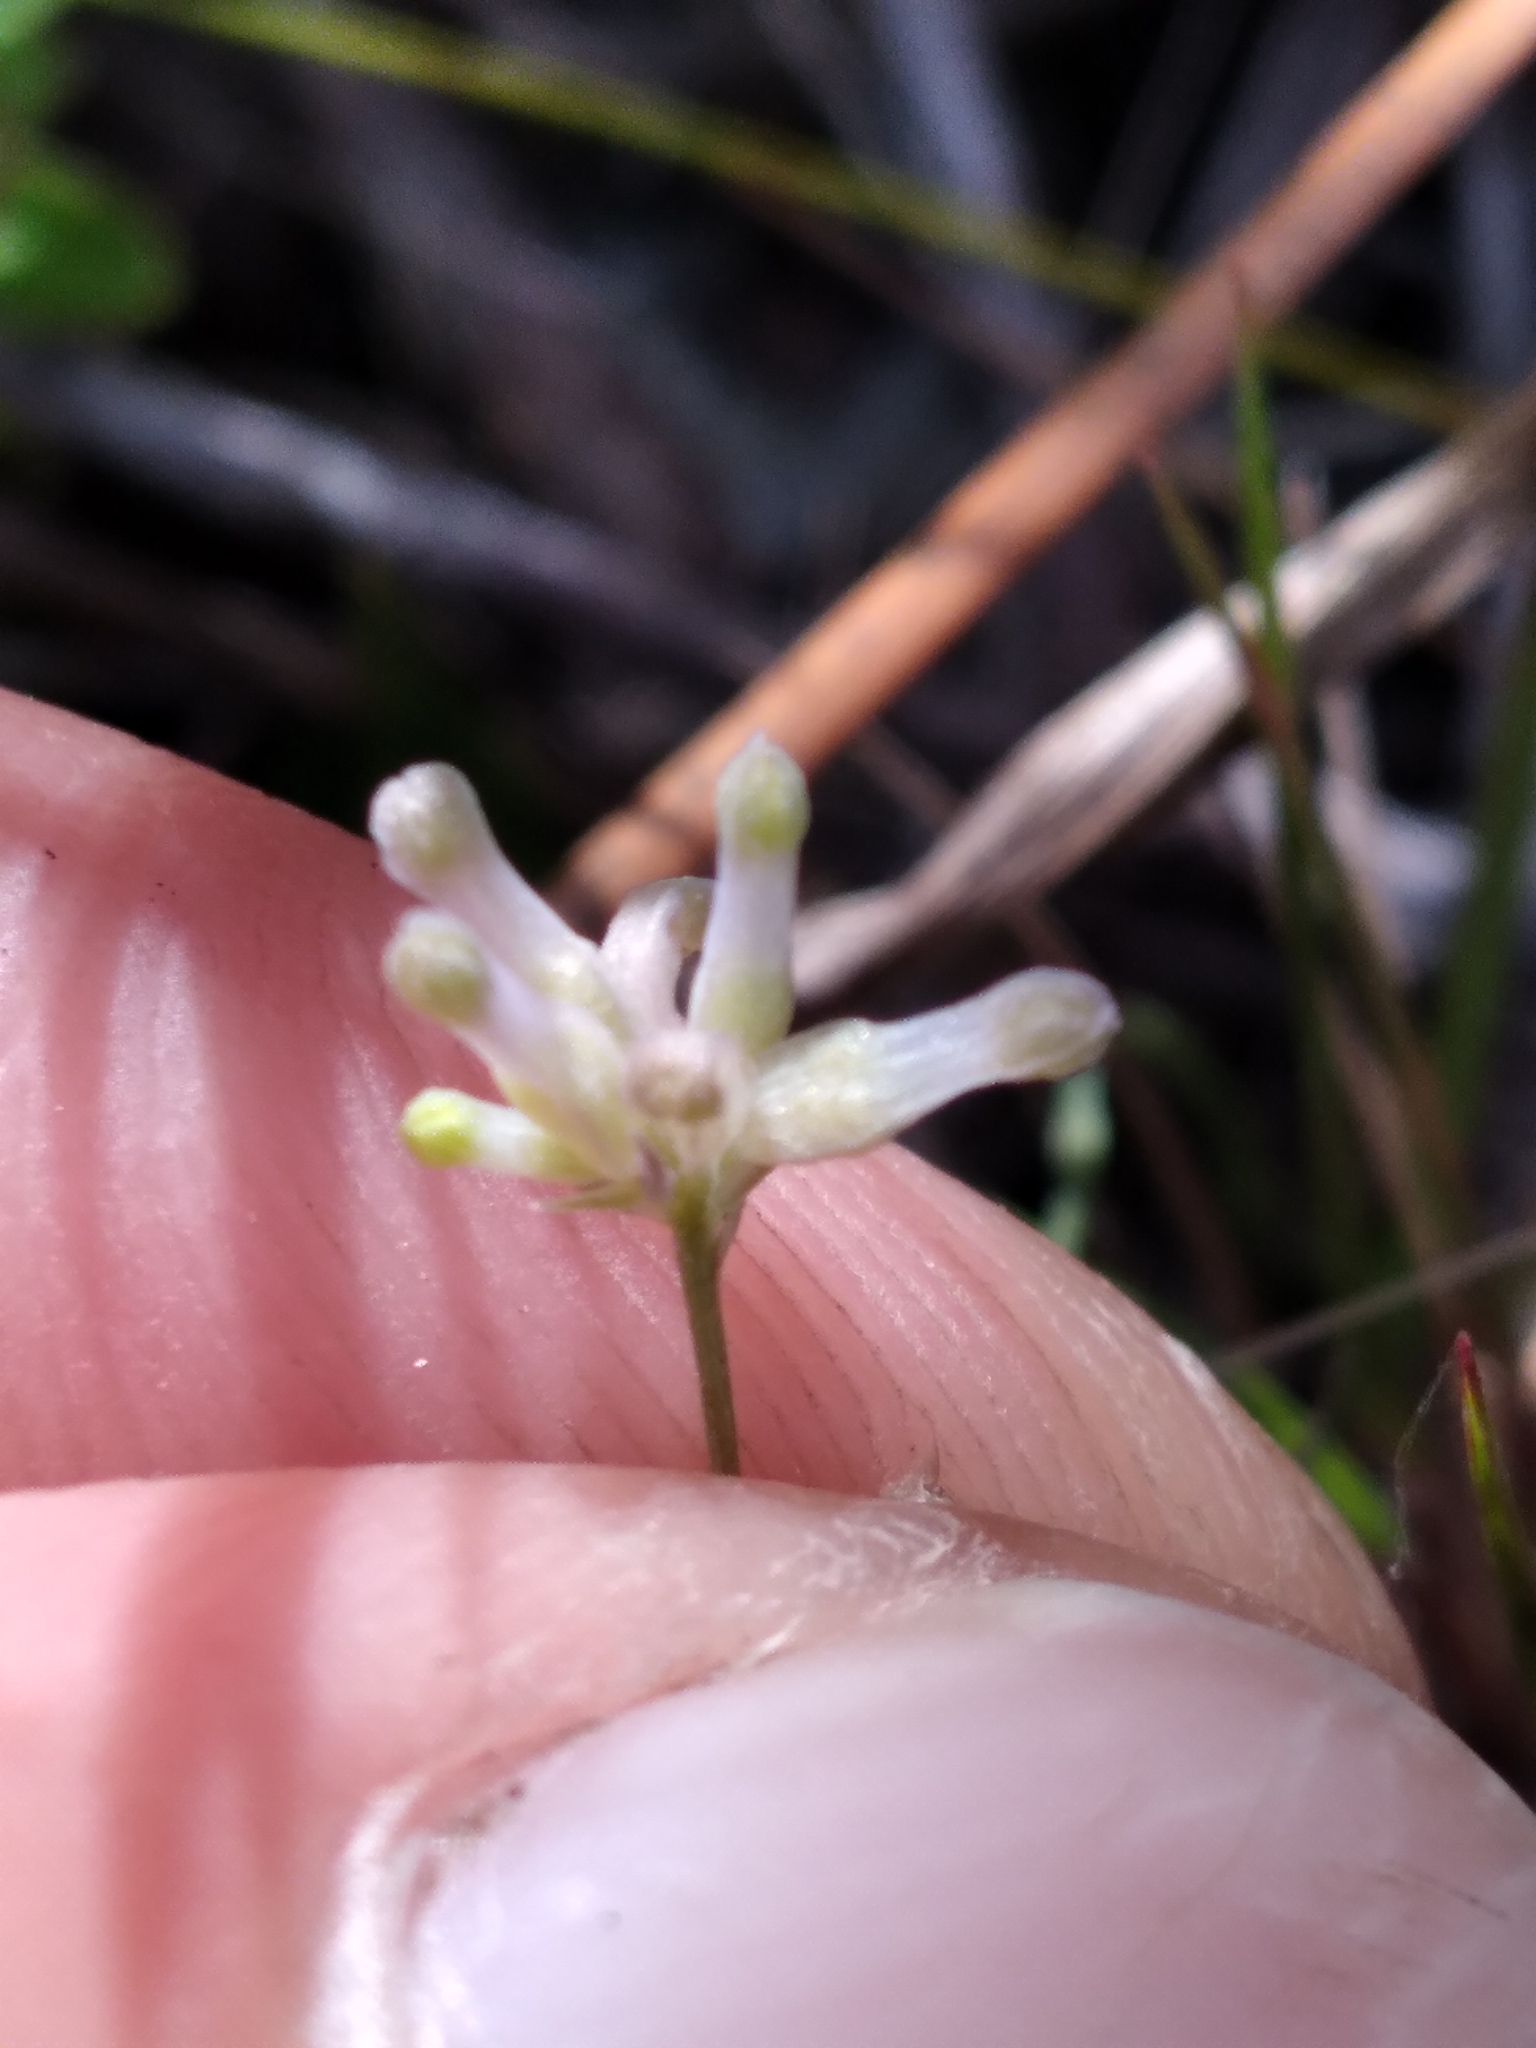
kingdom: Plantae
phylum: Tracheophyta
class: Liliopsida
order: Dioscoreales
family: Burmanniaceae
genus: Burmannia
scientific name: Burmannia capitata
